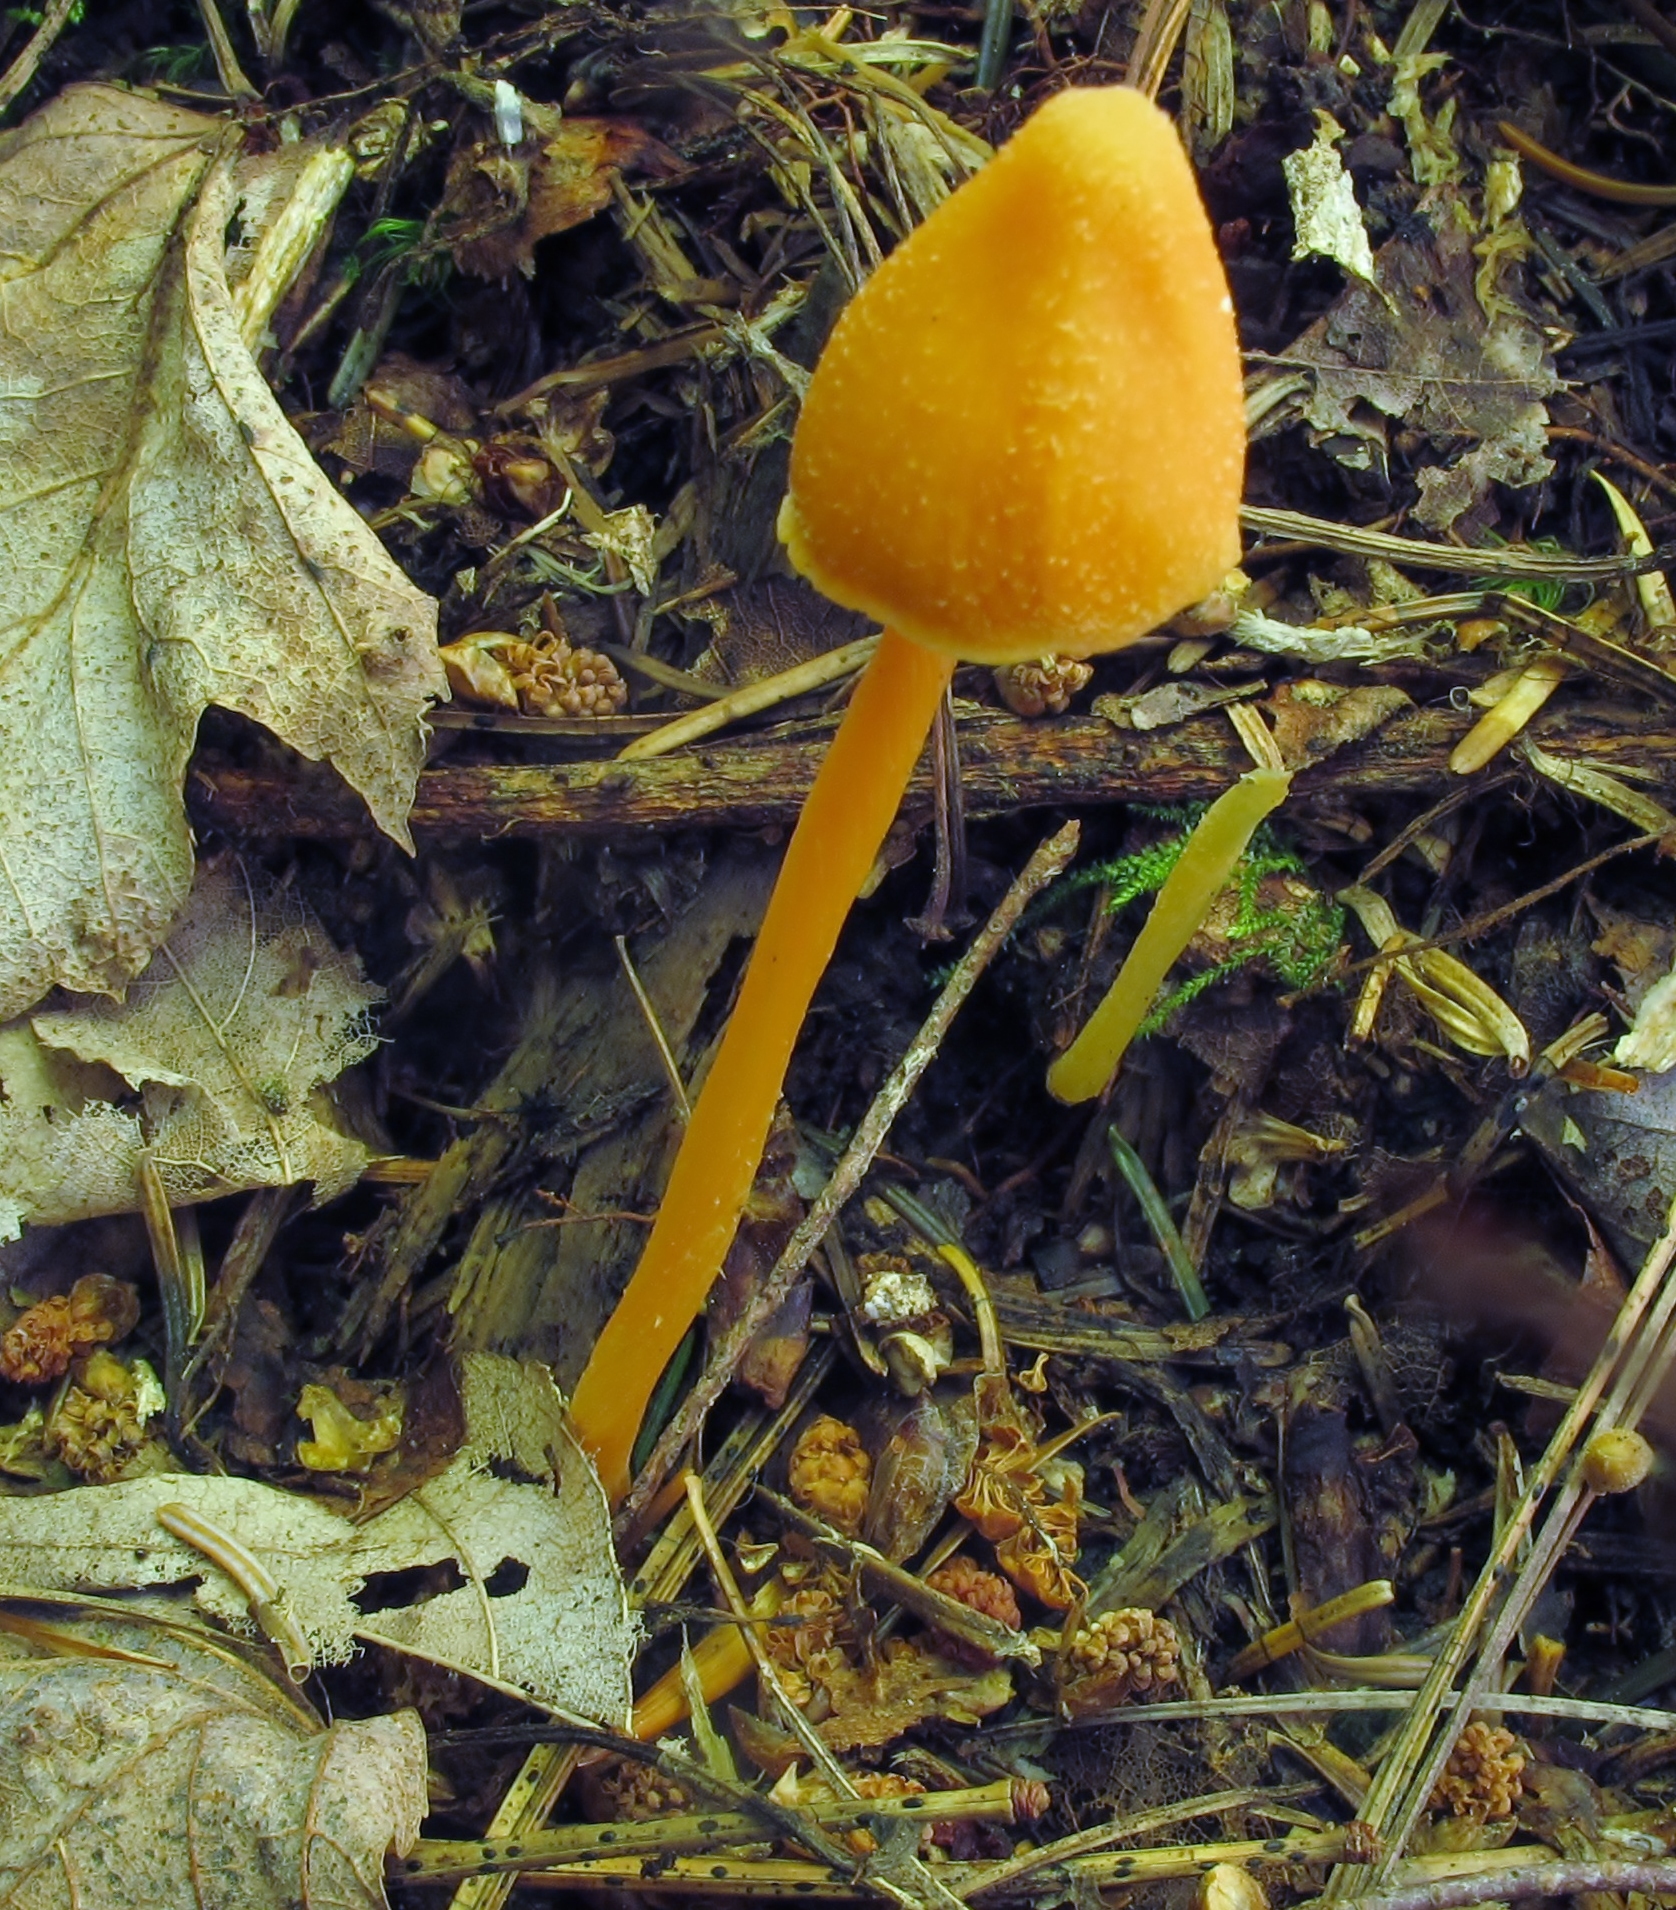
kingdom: Fungi
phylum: Basidiomycota
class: Agaricomycetes
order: Agaricales
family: Entolomataceae
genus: Entoloma
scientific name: Entoloma quadratum
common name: Salmon pinkgill
